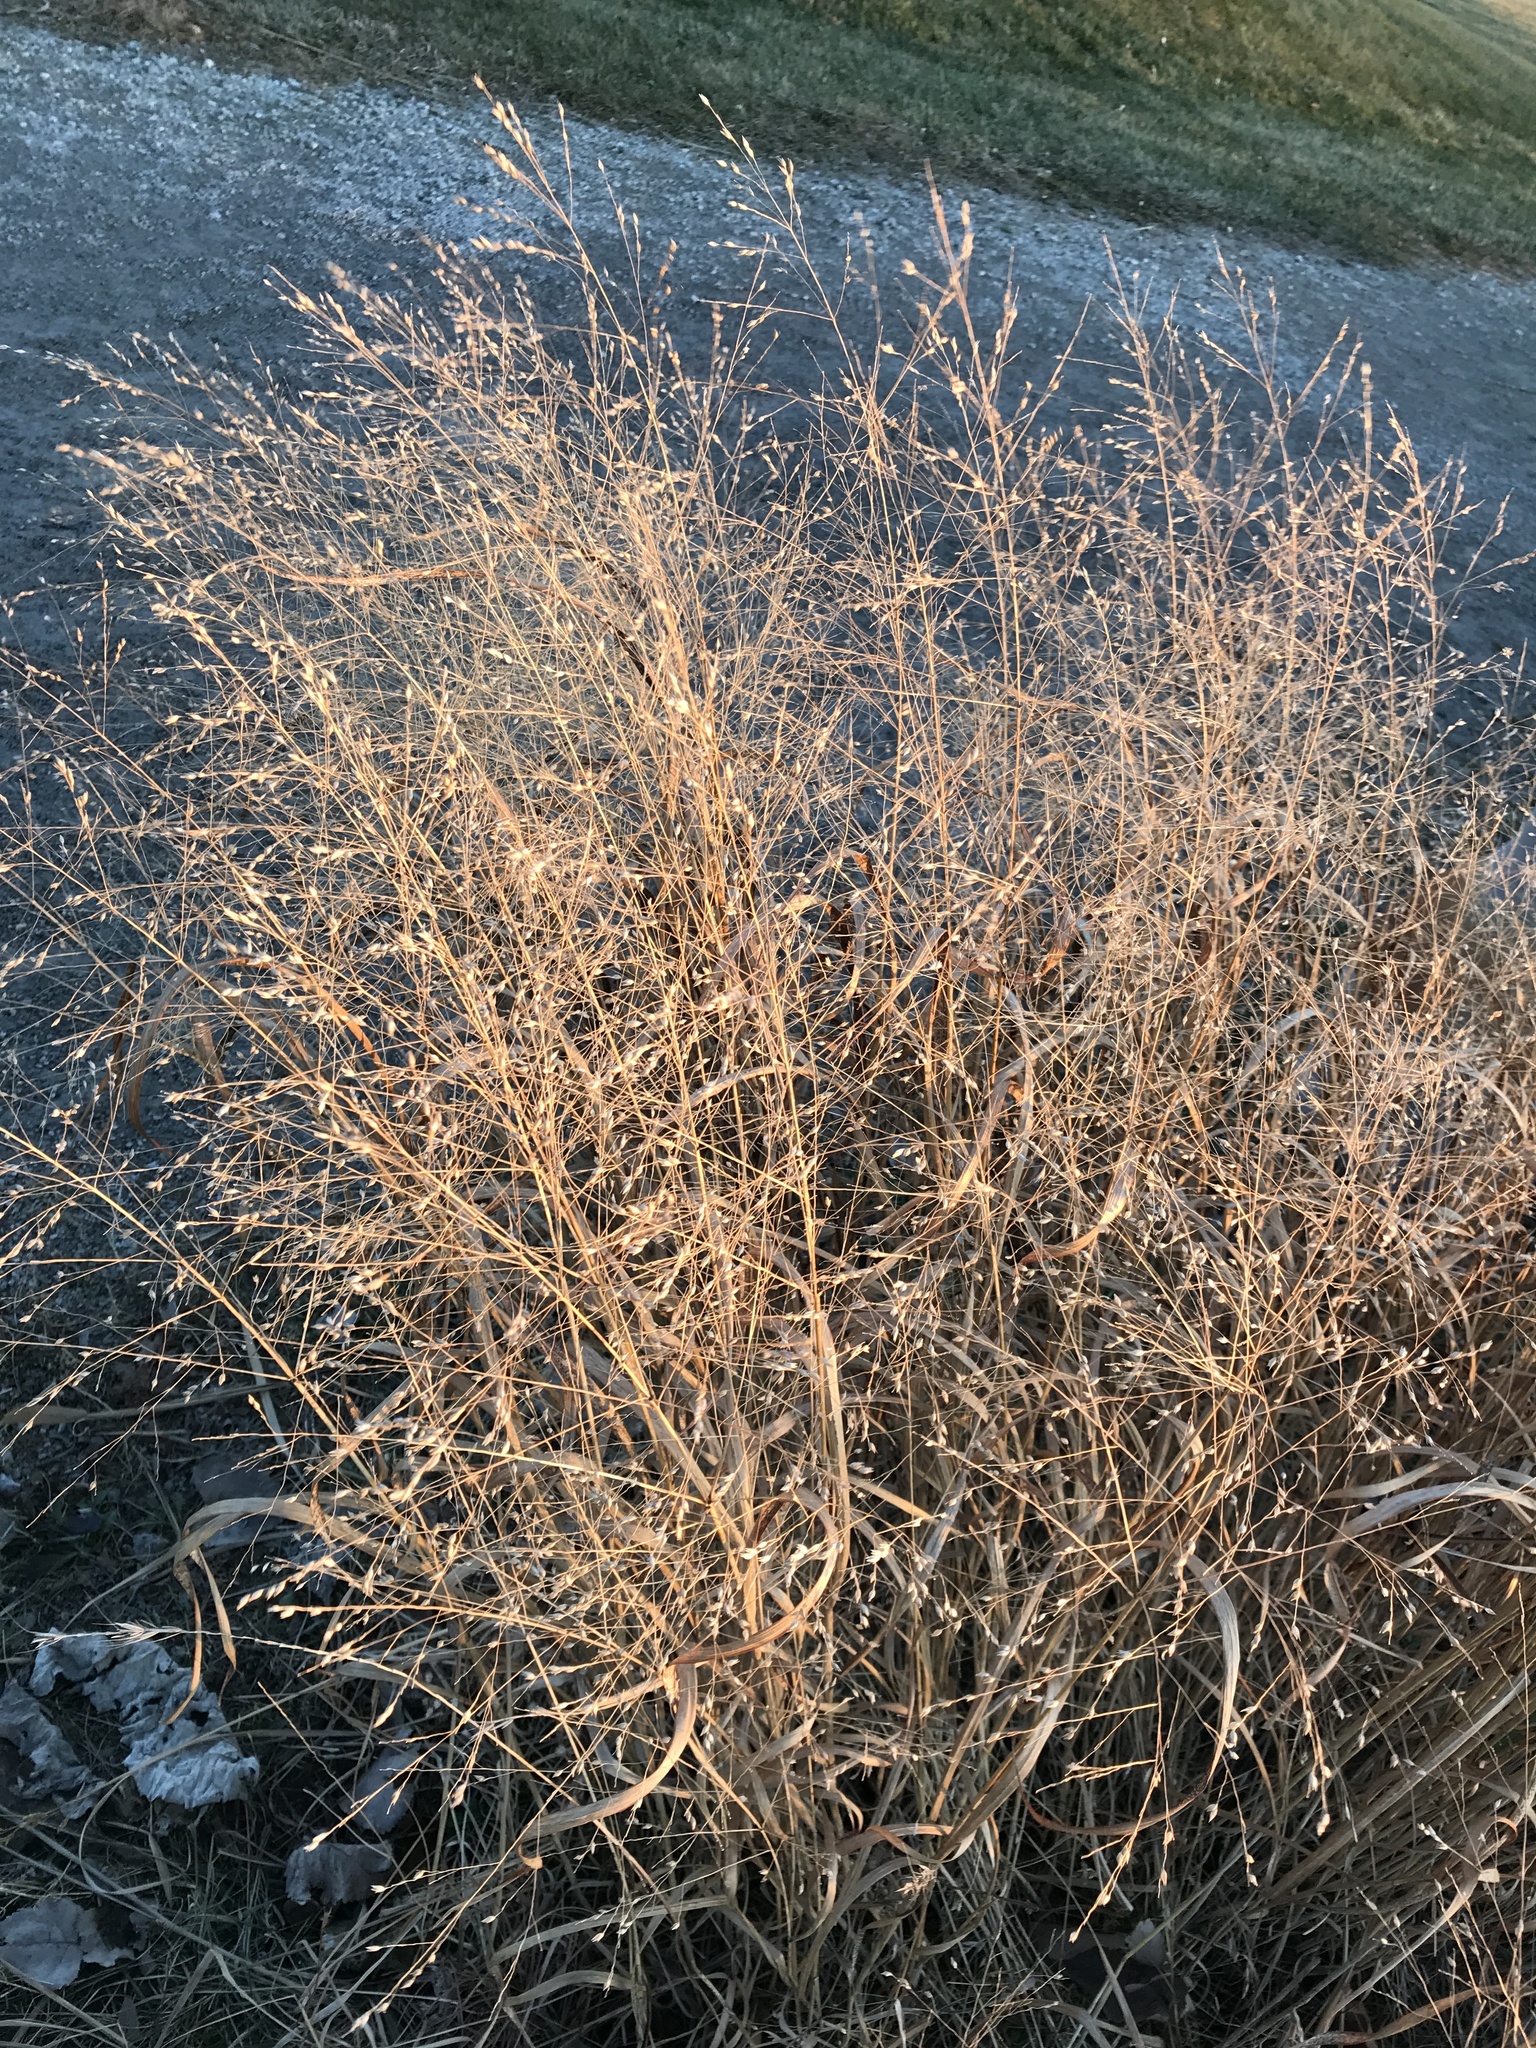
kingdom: Plantae
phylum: Tracheophyta
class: Liliopsida
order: Poales
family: Poaceae
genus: Panicum
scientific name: Panicum virgatum
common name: Switchgrass
